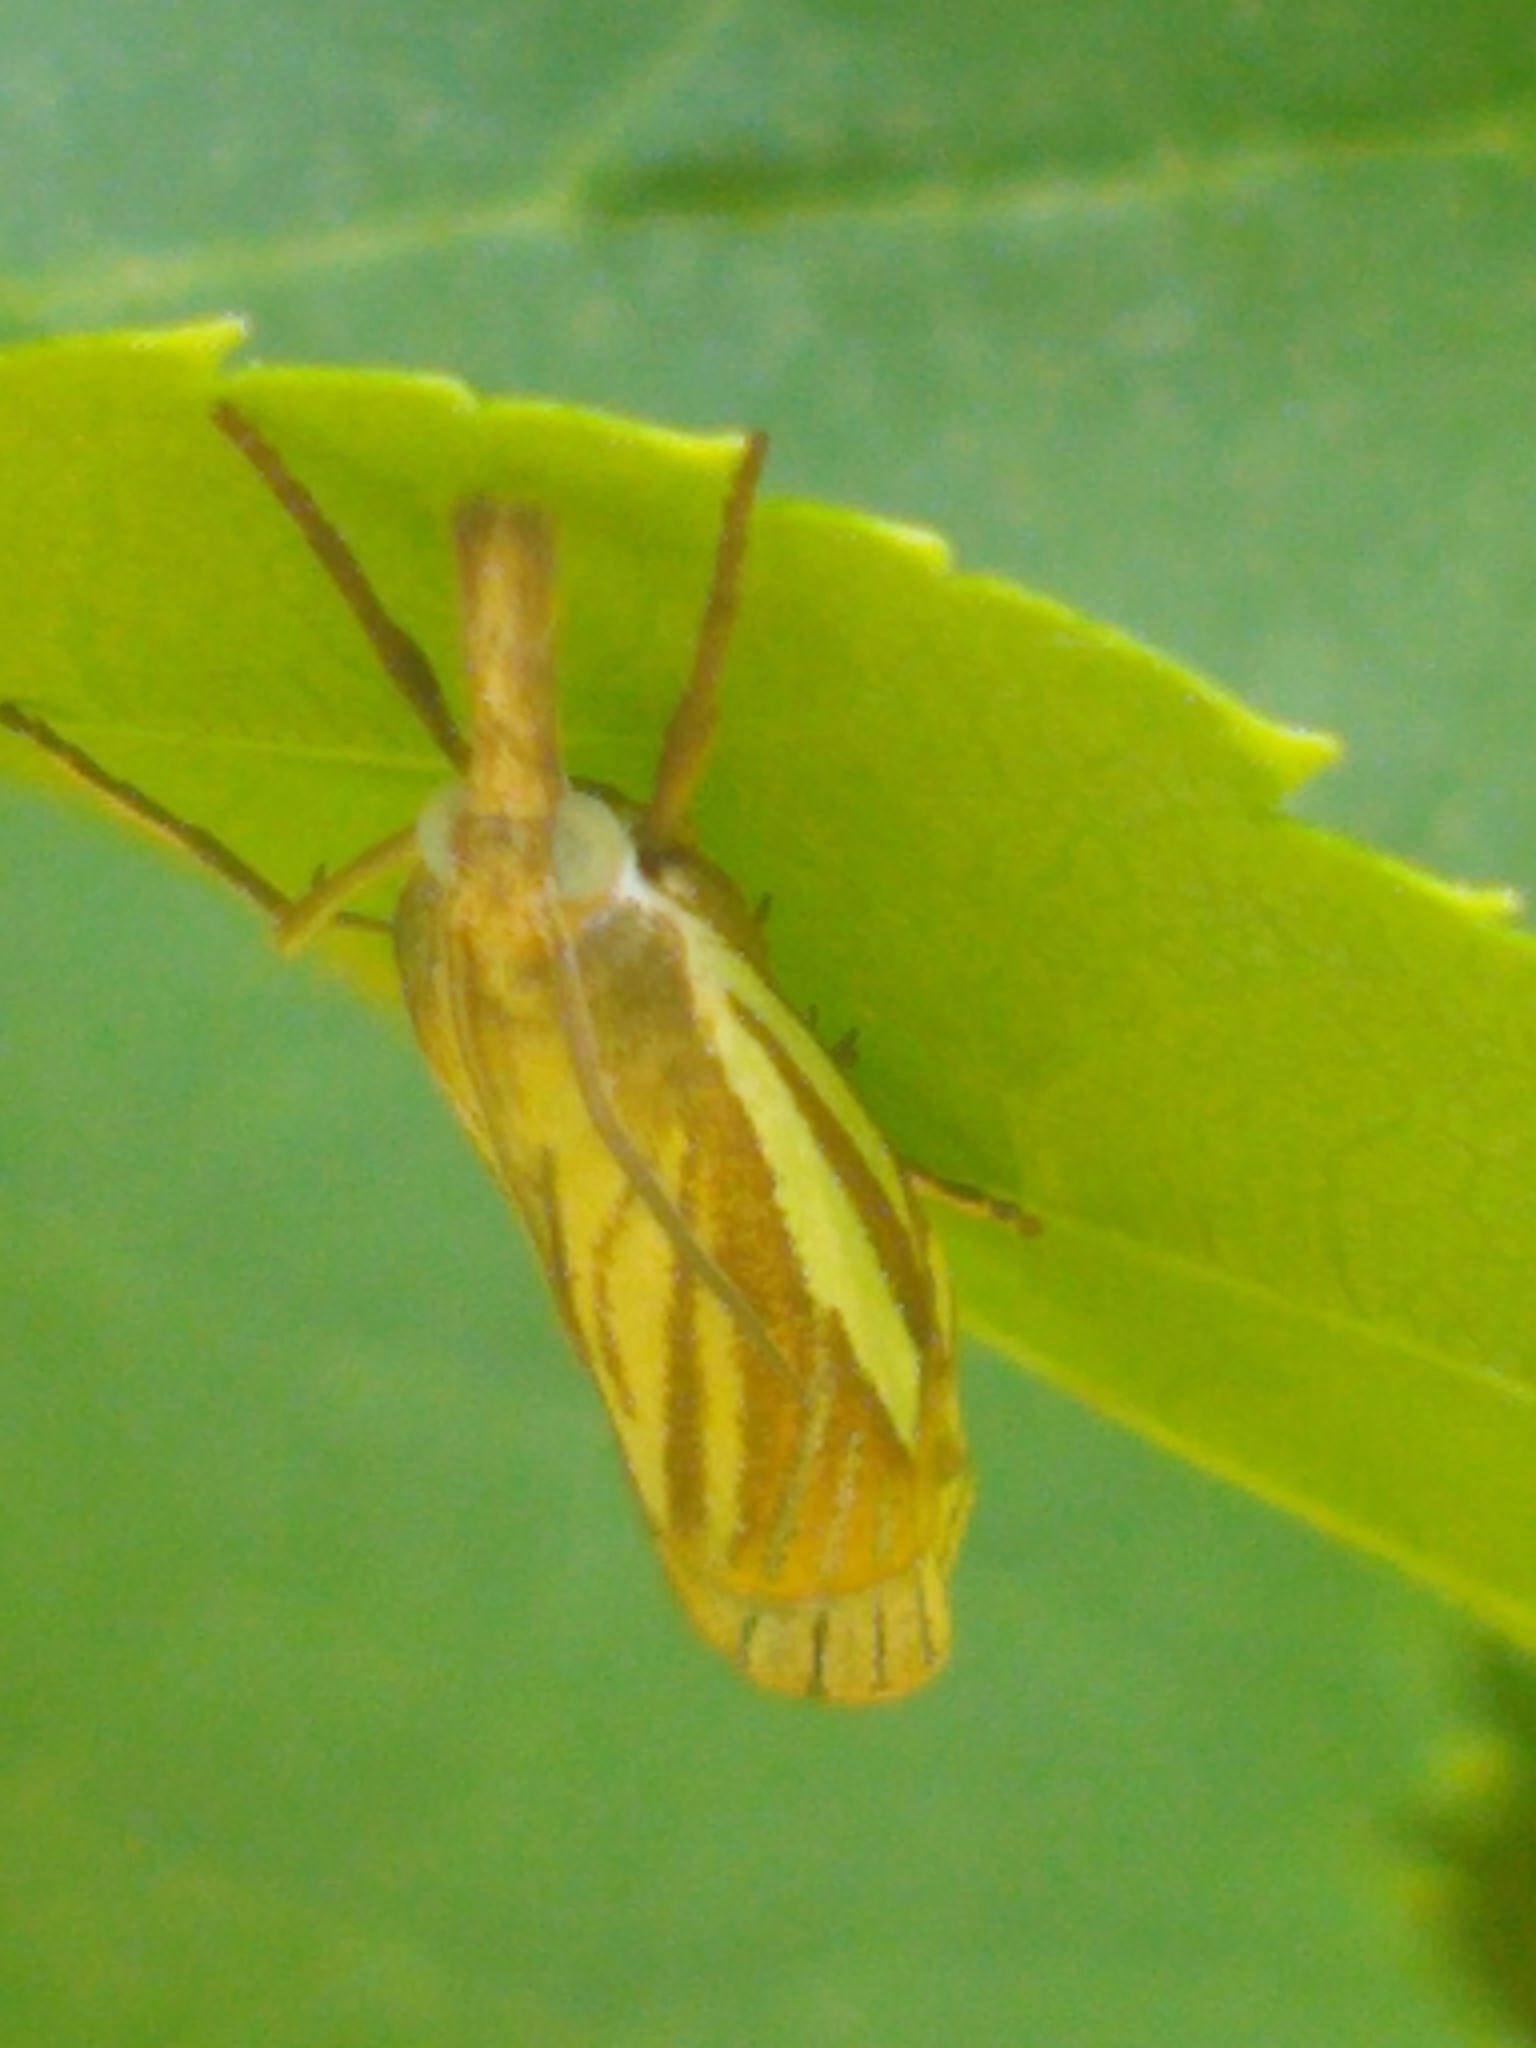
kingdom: Animalia
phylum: Arthropoda
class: Insecta
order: Lepidoptera
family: Crambidae
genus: Crambus
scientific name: Crambus laqueatellus
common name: Eastern grass-veneer
